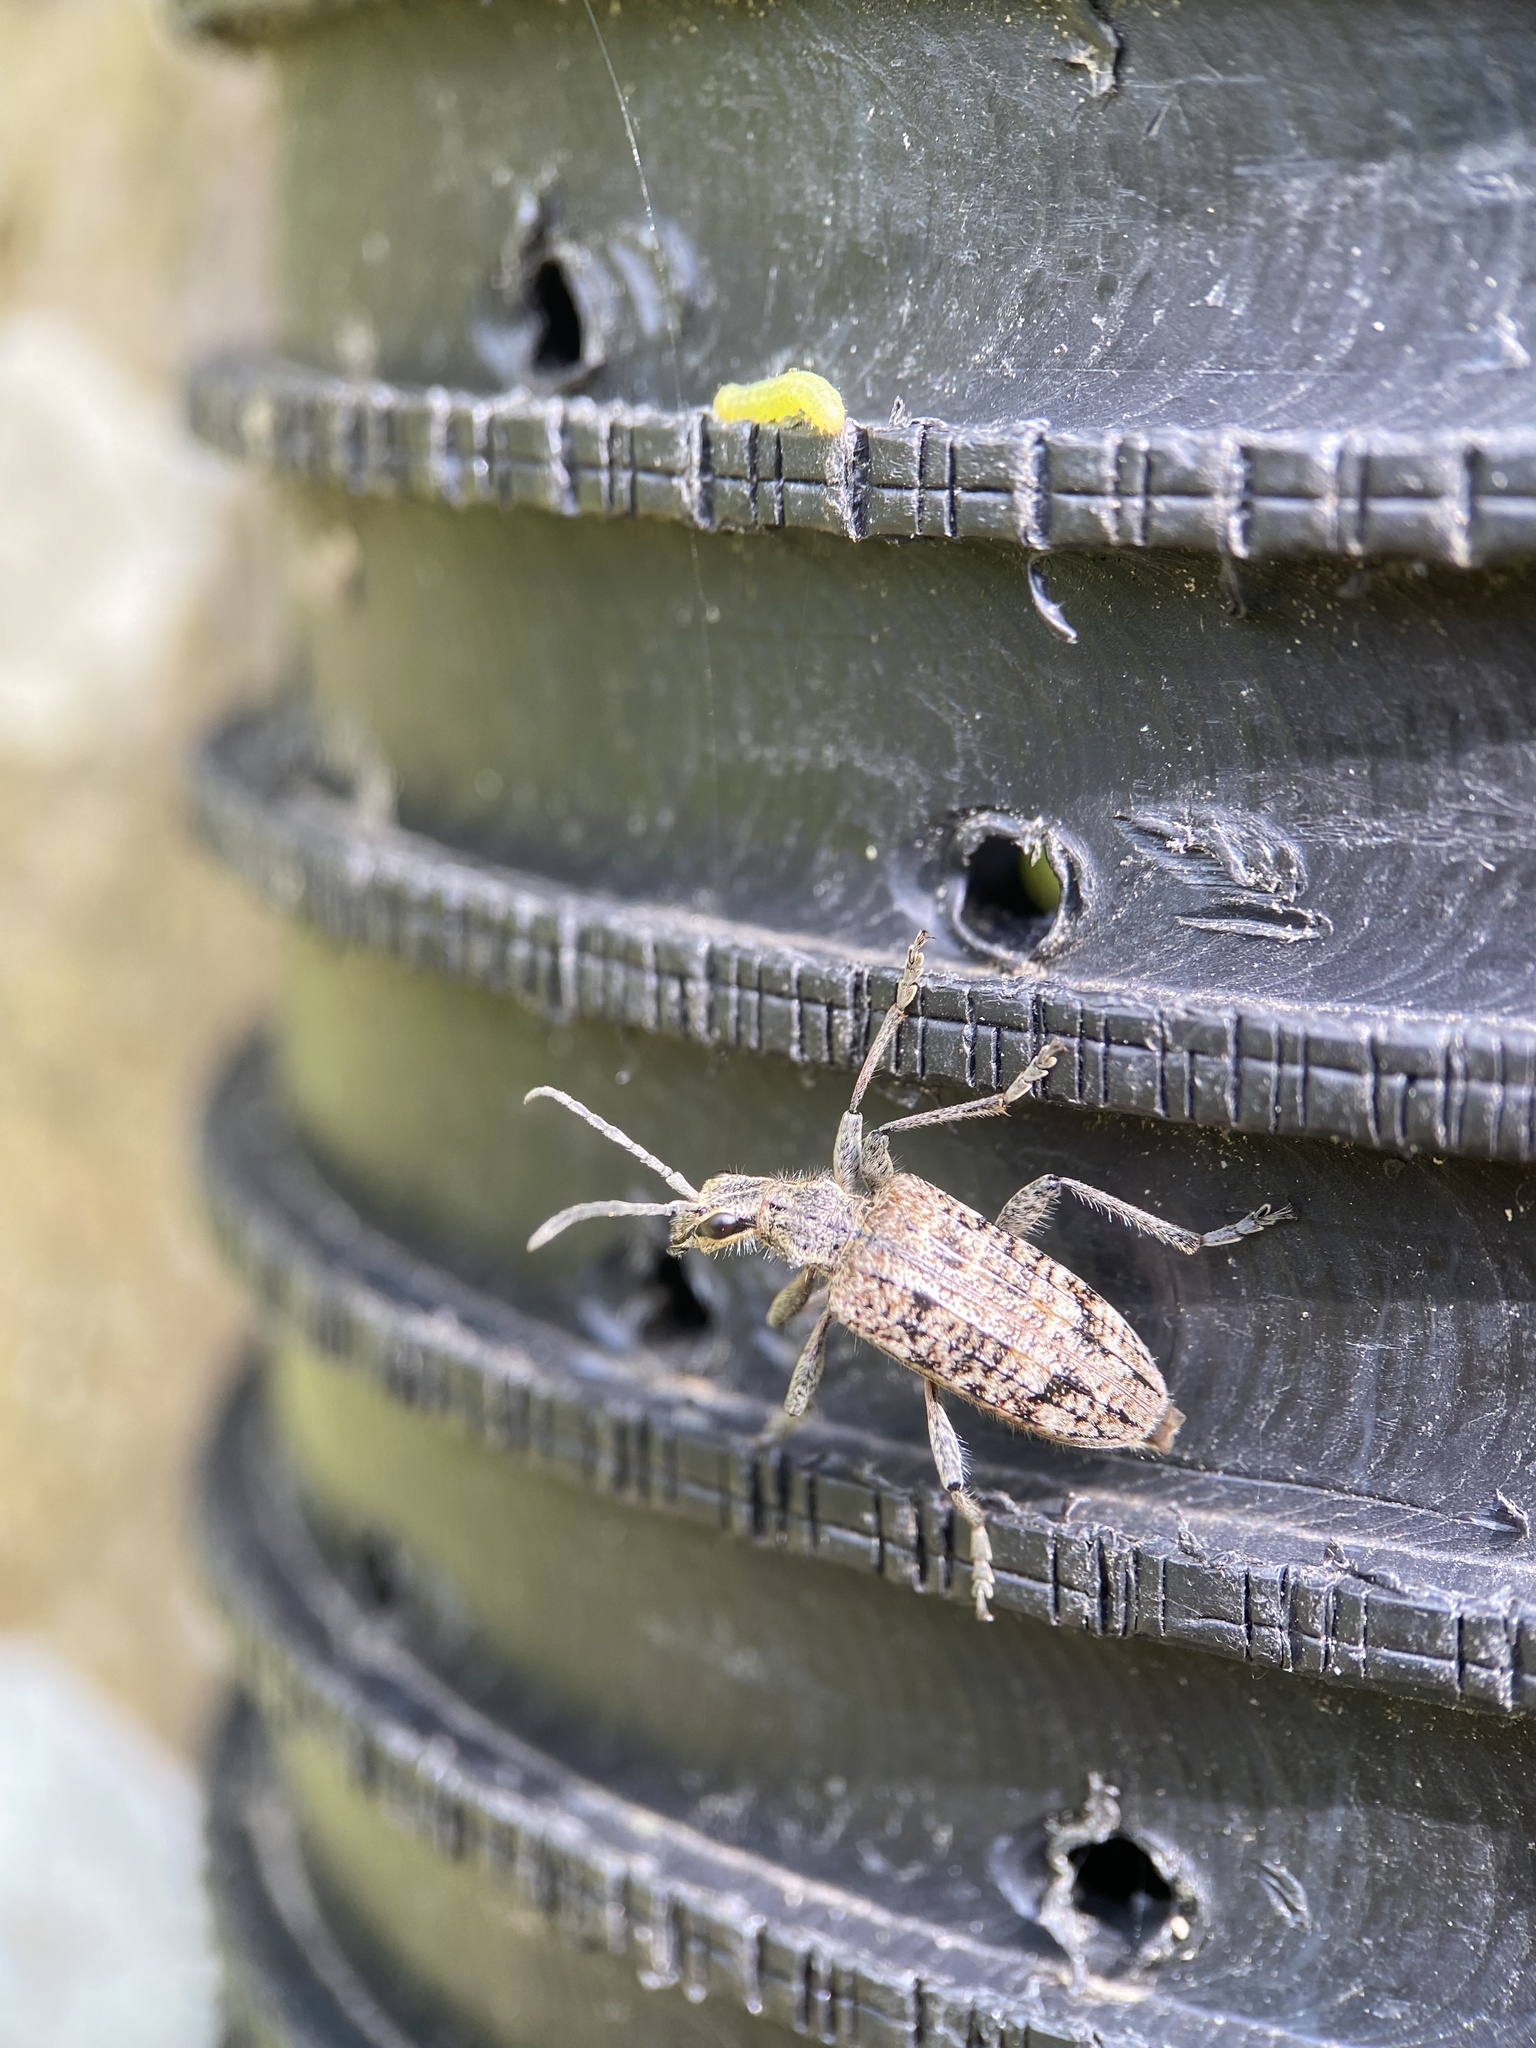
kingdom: Animalia
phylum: Arthropoda
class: Insecta
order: Coleoptera
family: Cerambycidae
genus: Rhagium
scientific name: Rhagium inquisitor
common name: Ribbed pine borer
